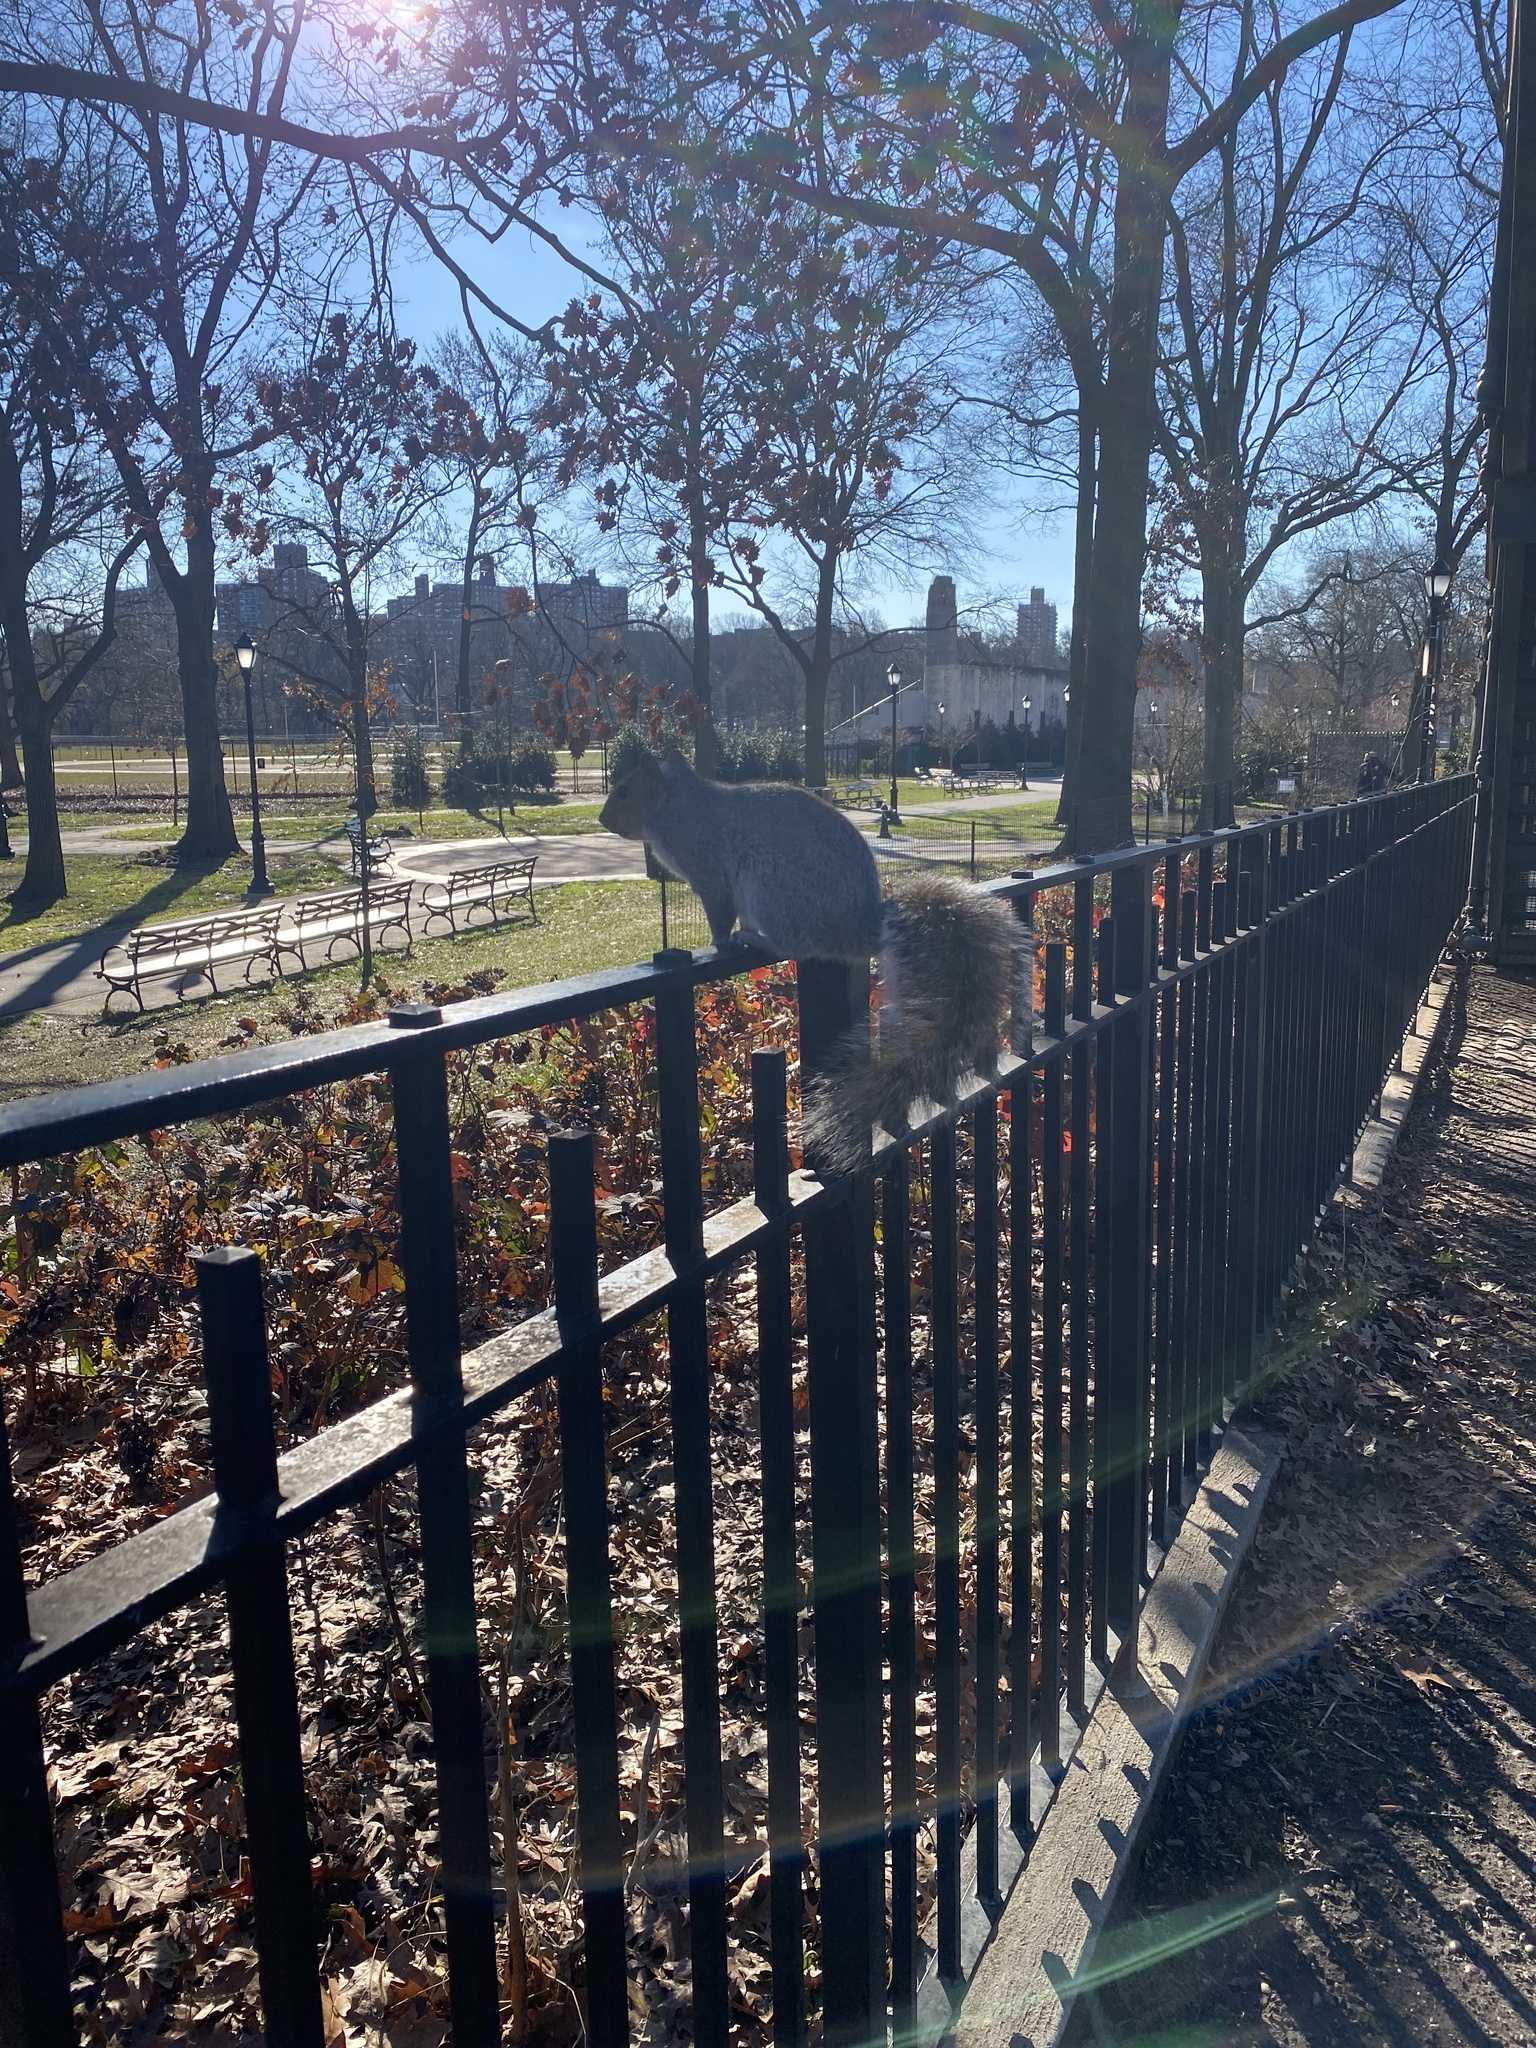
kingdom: Animalia
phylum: Chordata
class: Mammalia
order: Rodentia
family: Sciuridae
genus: Sciurus
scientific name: Sciurus carolinensis
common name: Eastern gray squirrel
